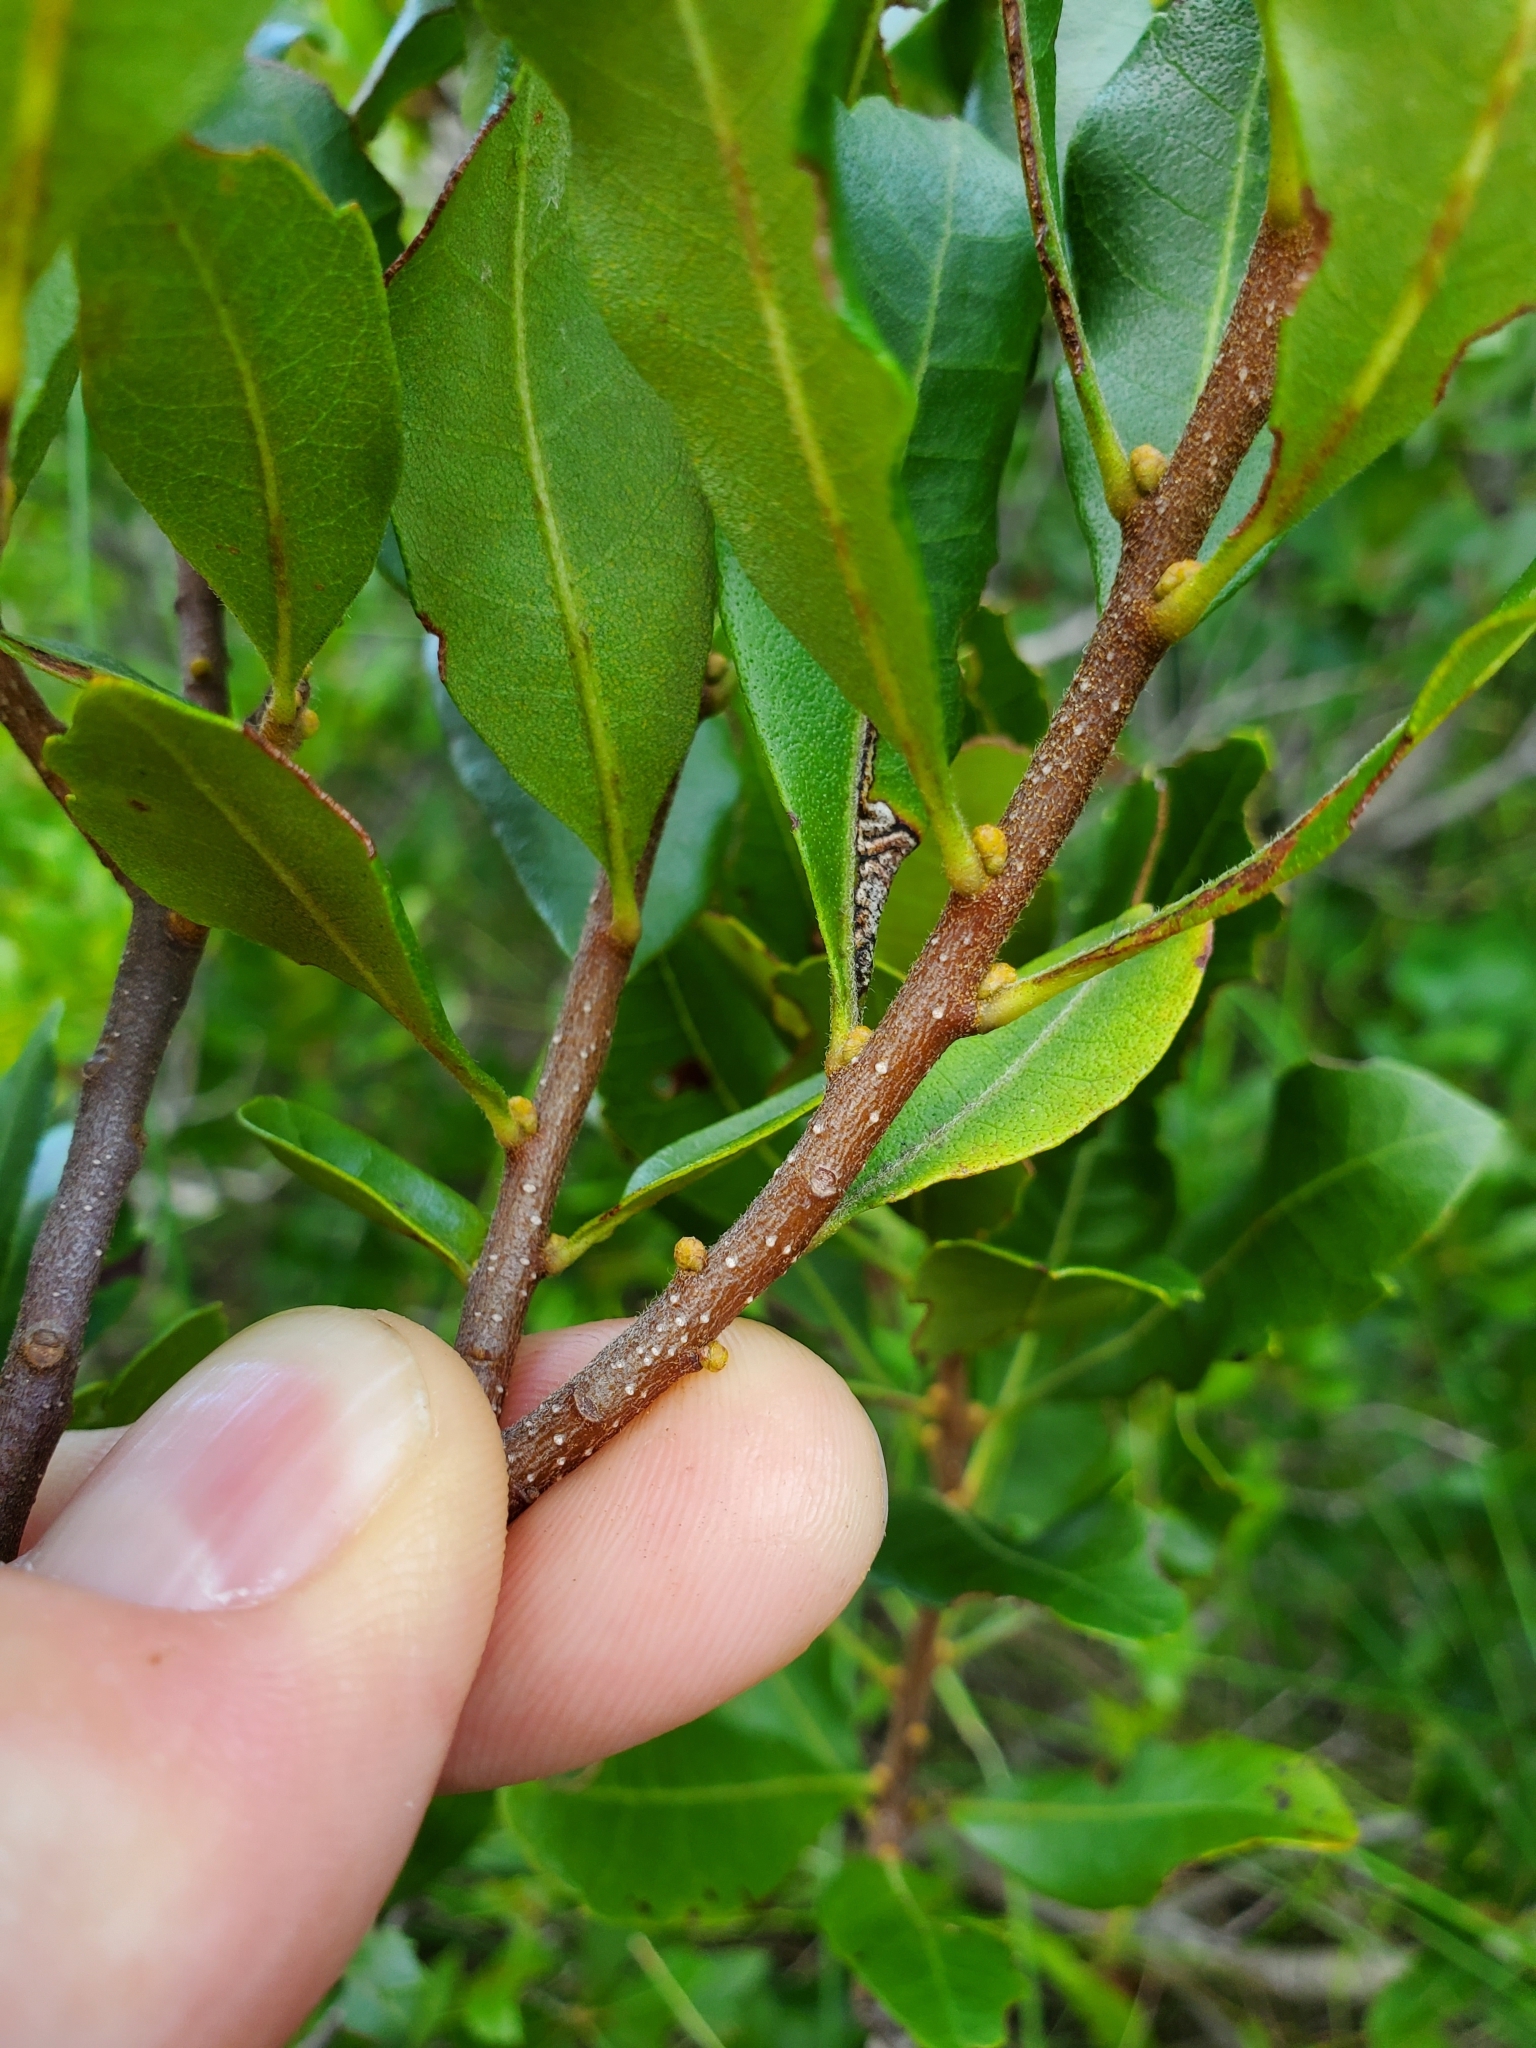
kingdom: Plantae
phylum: Tracheophyta
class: Magnoliopsida
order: Fagales
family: Myricaceae
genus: Morella
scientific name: Morella cerifera
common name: Wax myrtle
